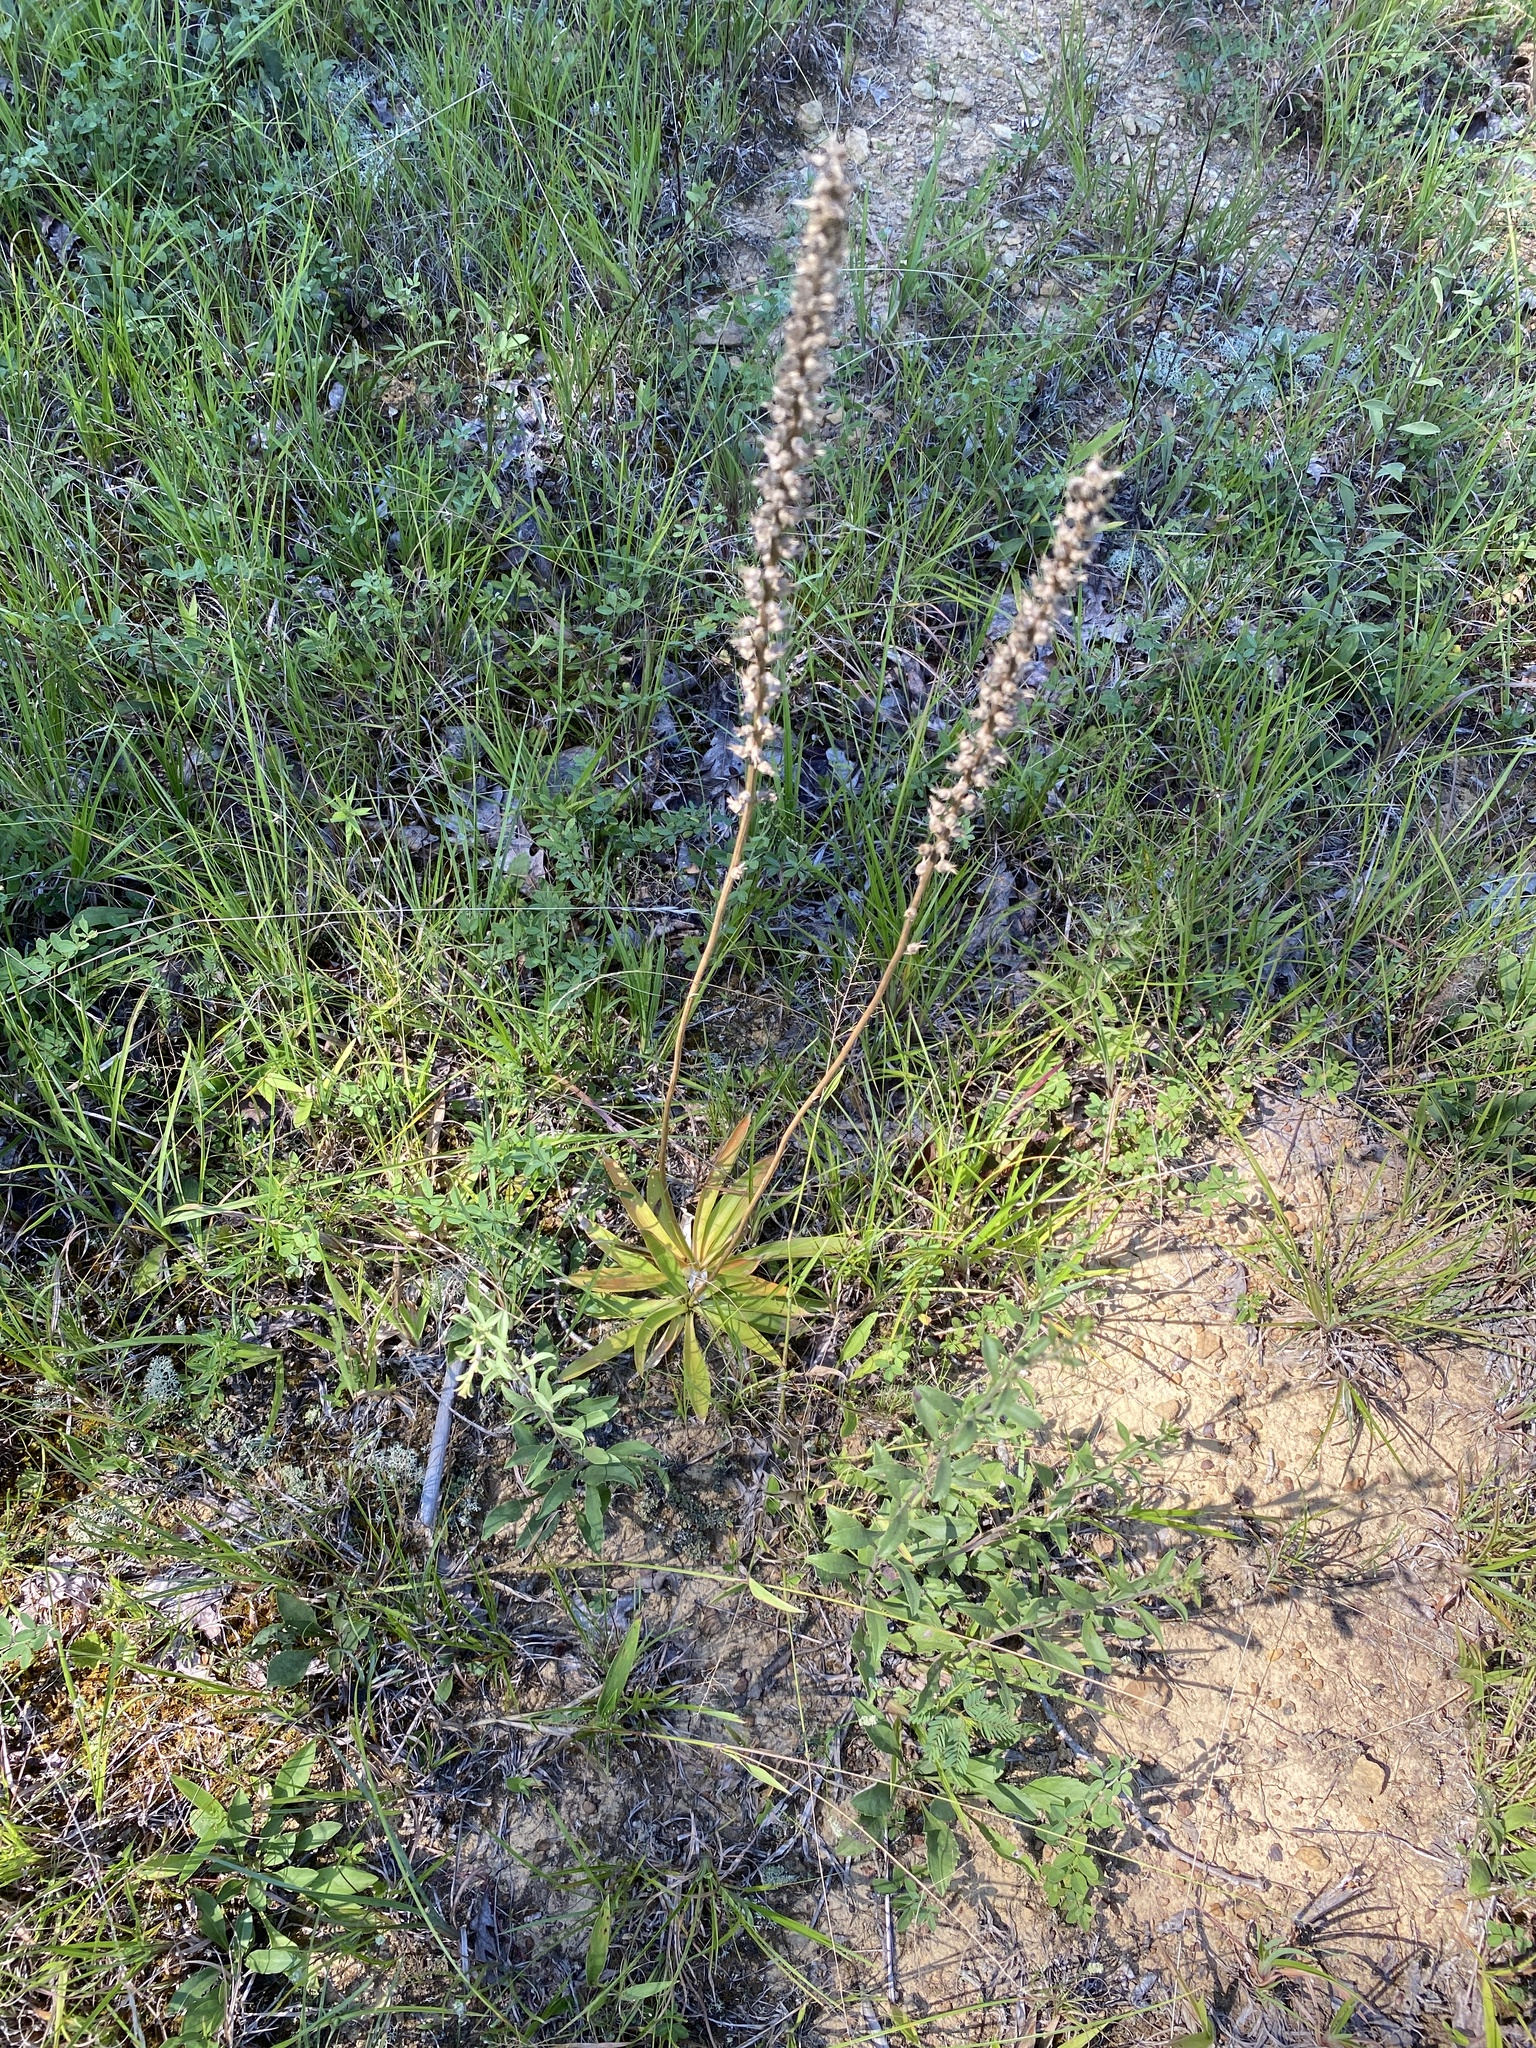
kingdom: Plantae
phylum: Tracheophyta
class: Liliopsida
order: Dioscoreales
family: Nartheciaceae
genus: Aletris
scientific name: Aletris farinosa
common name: Colicroot
